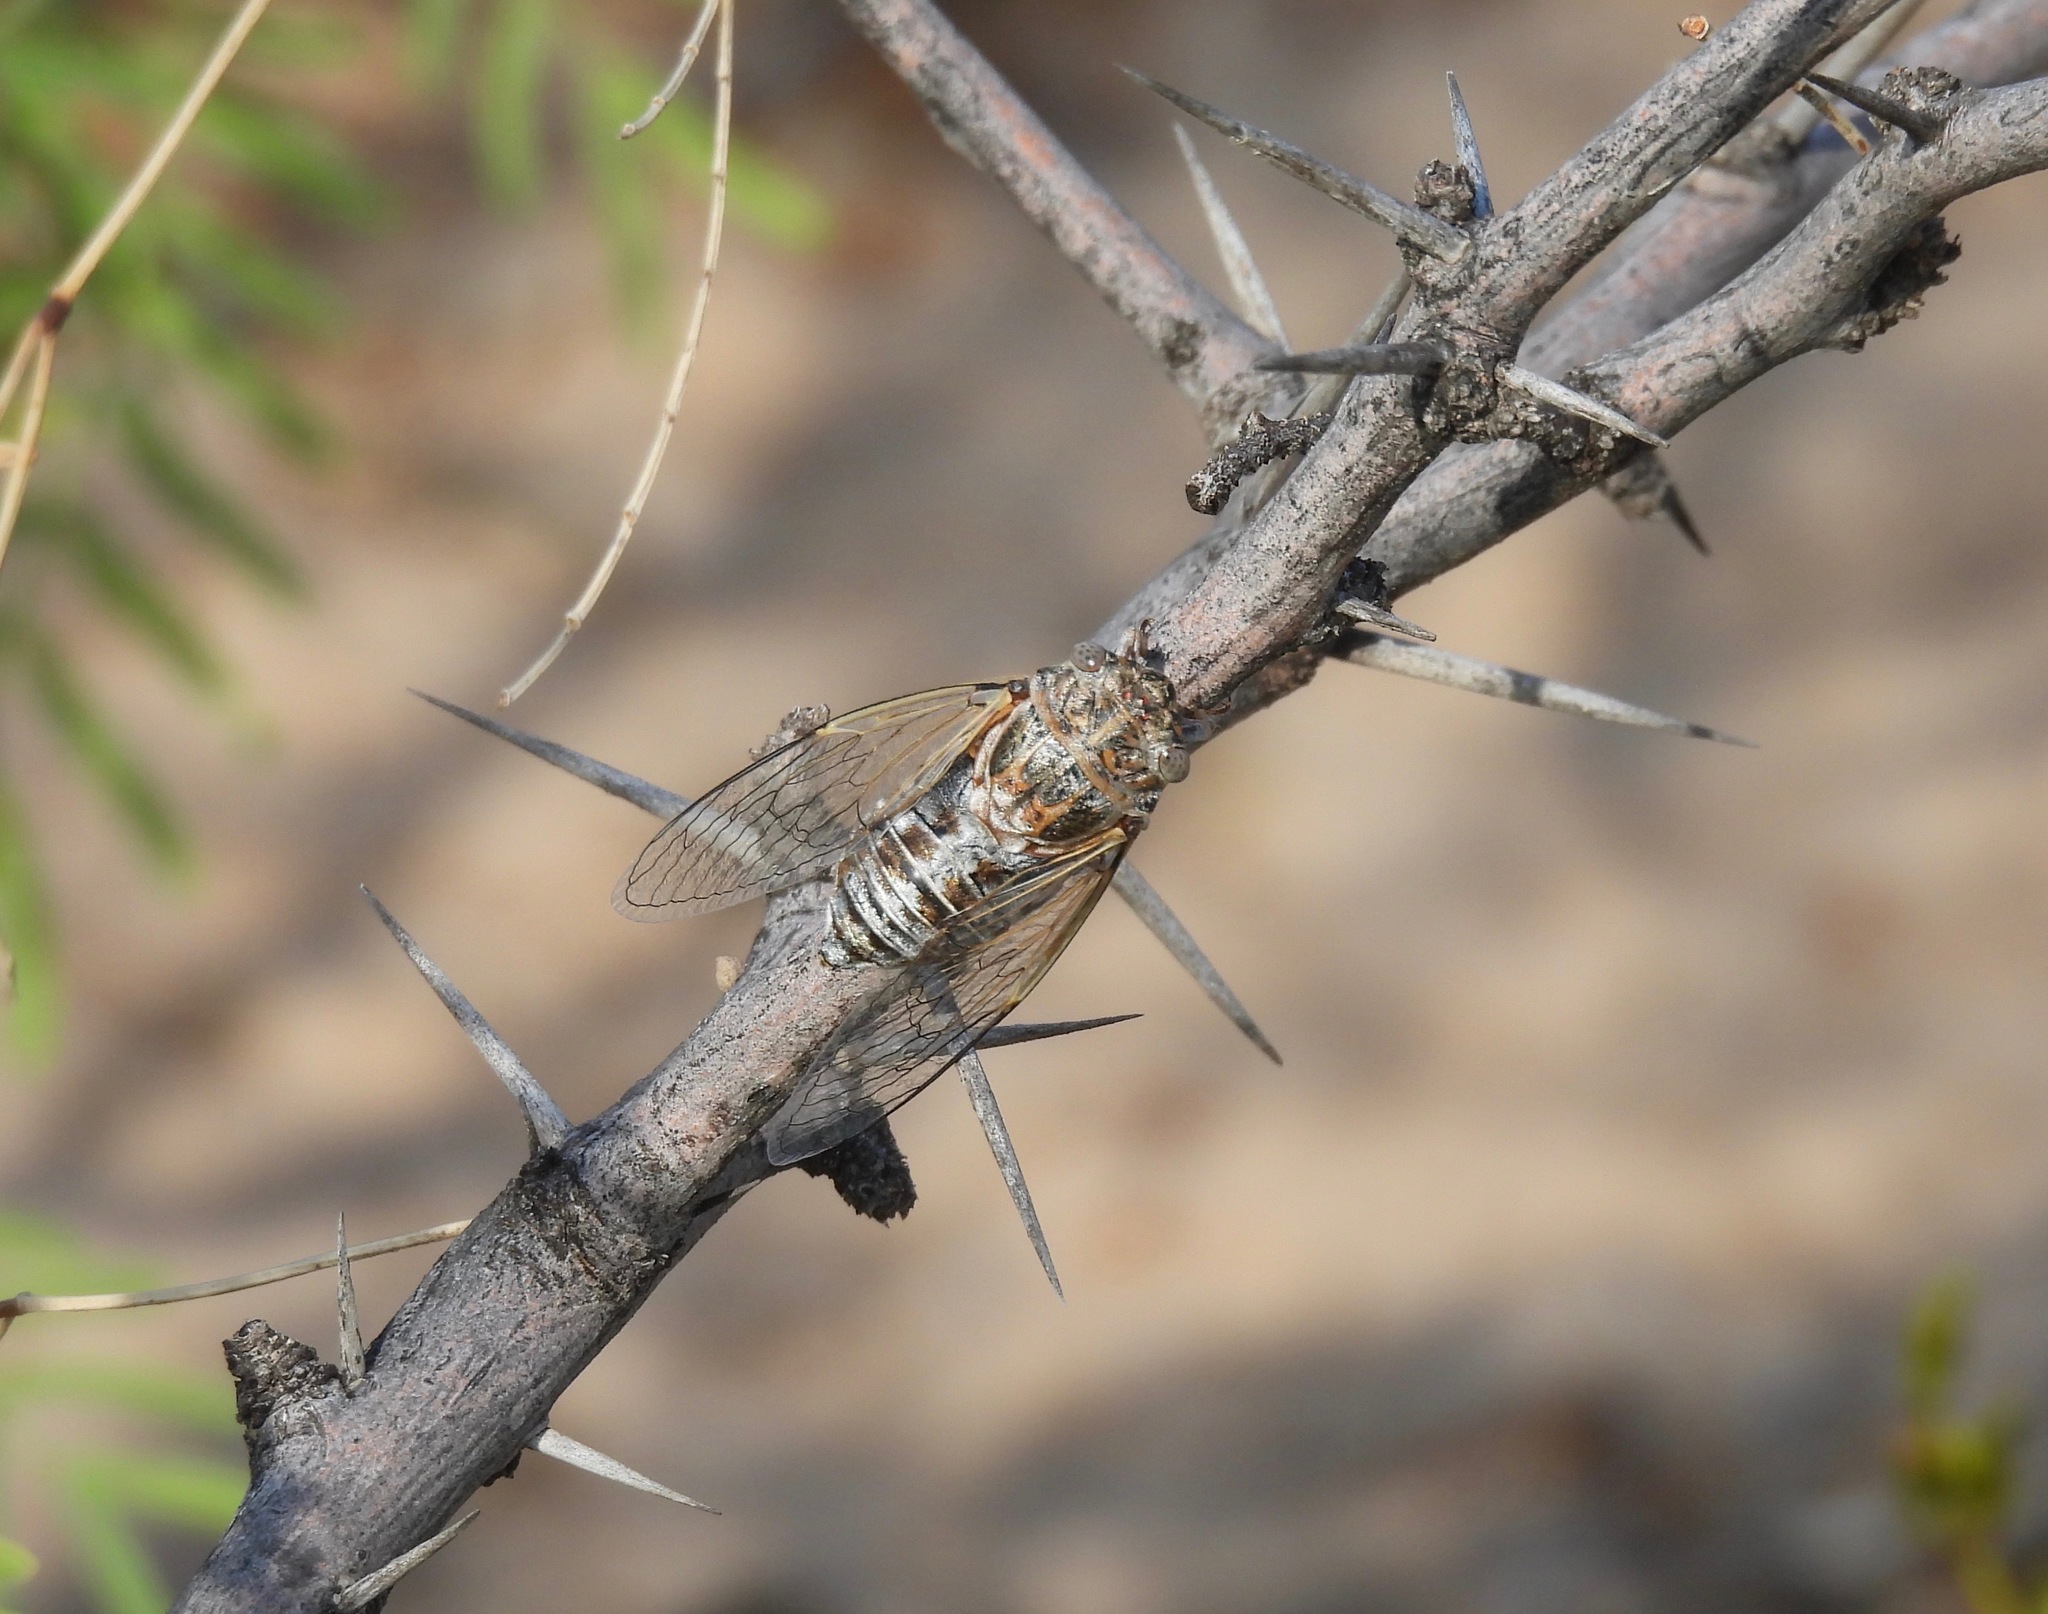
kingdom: Animalia
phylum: Arthropoda
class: Insecta
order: Hemiptera
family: Cicadidae
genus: Diceroprocta
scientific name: Diceroprocta eugraphica
